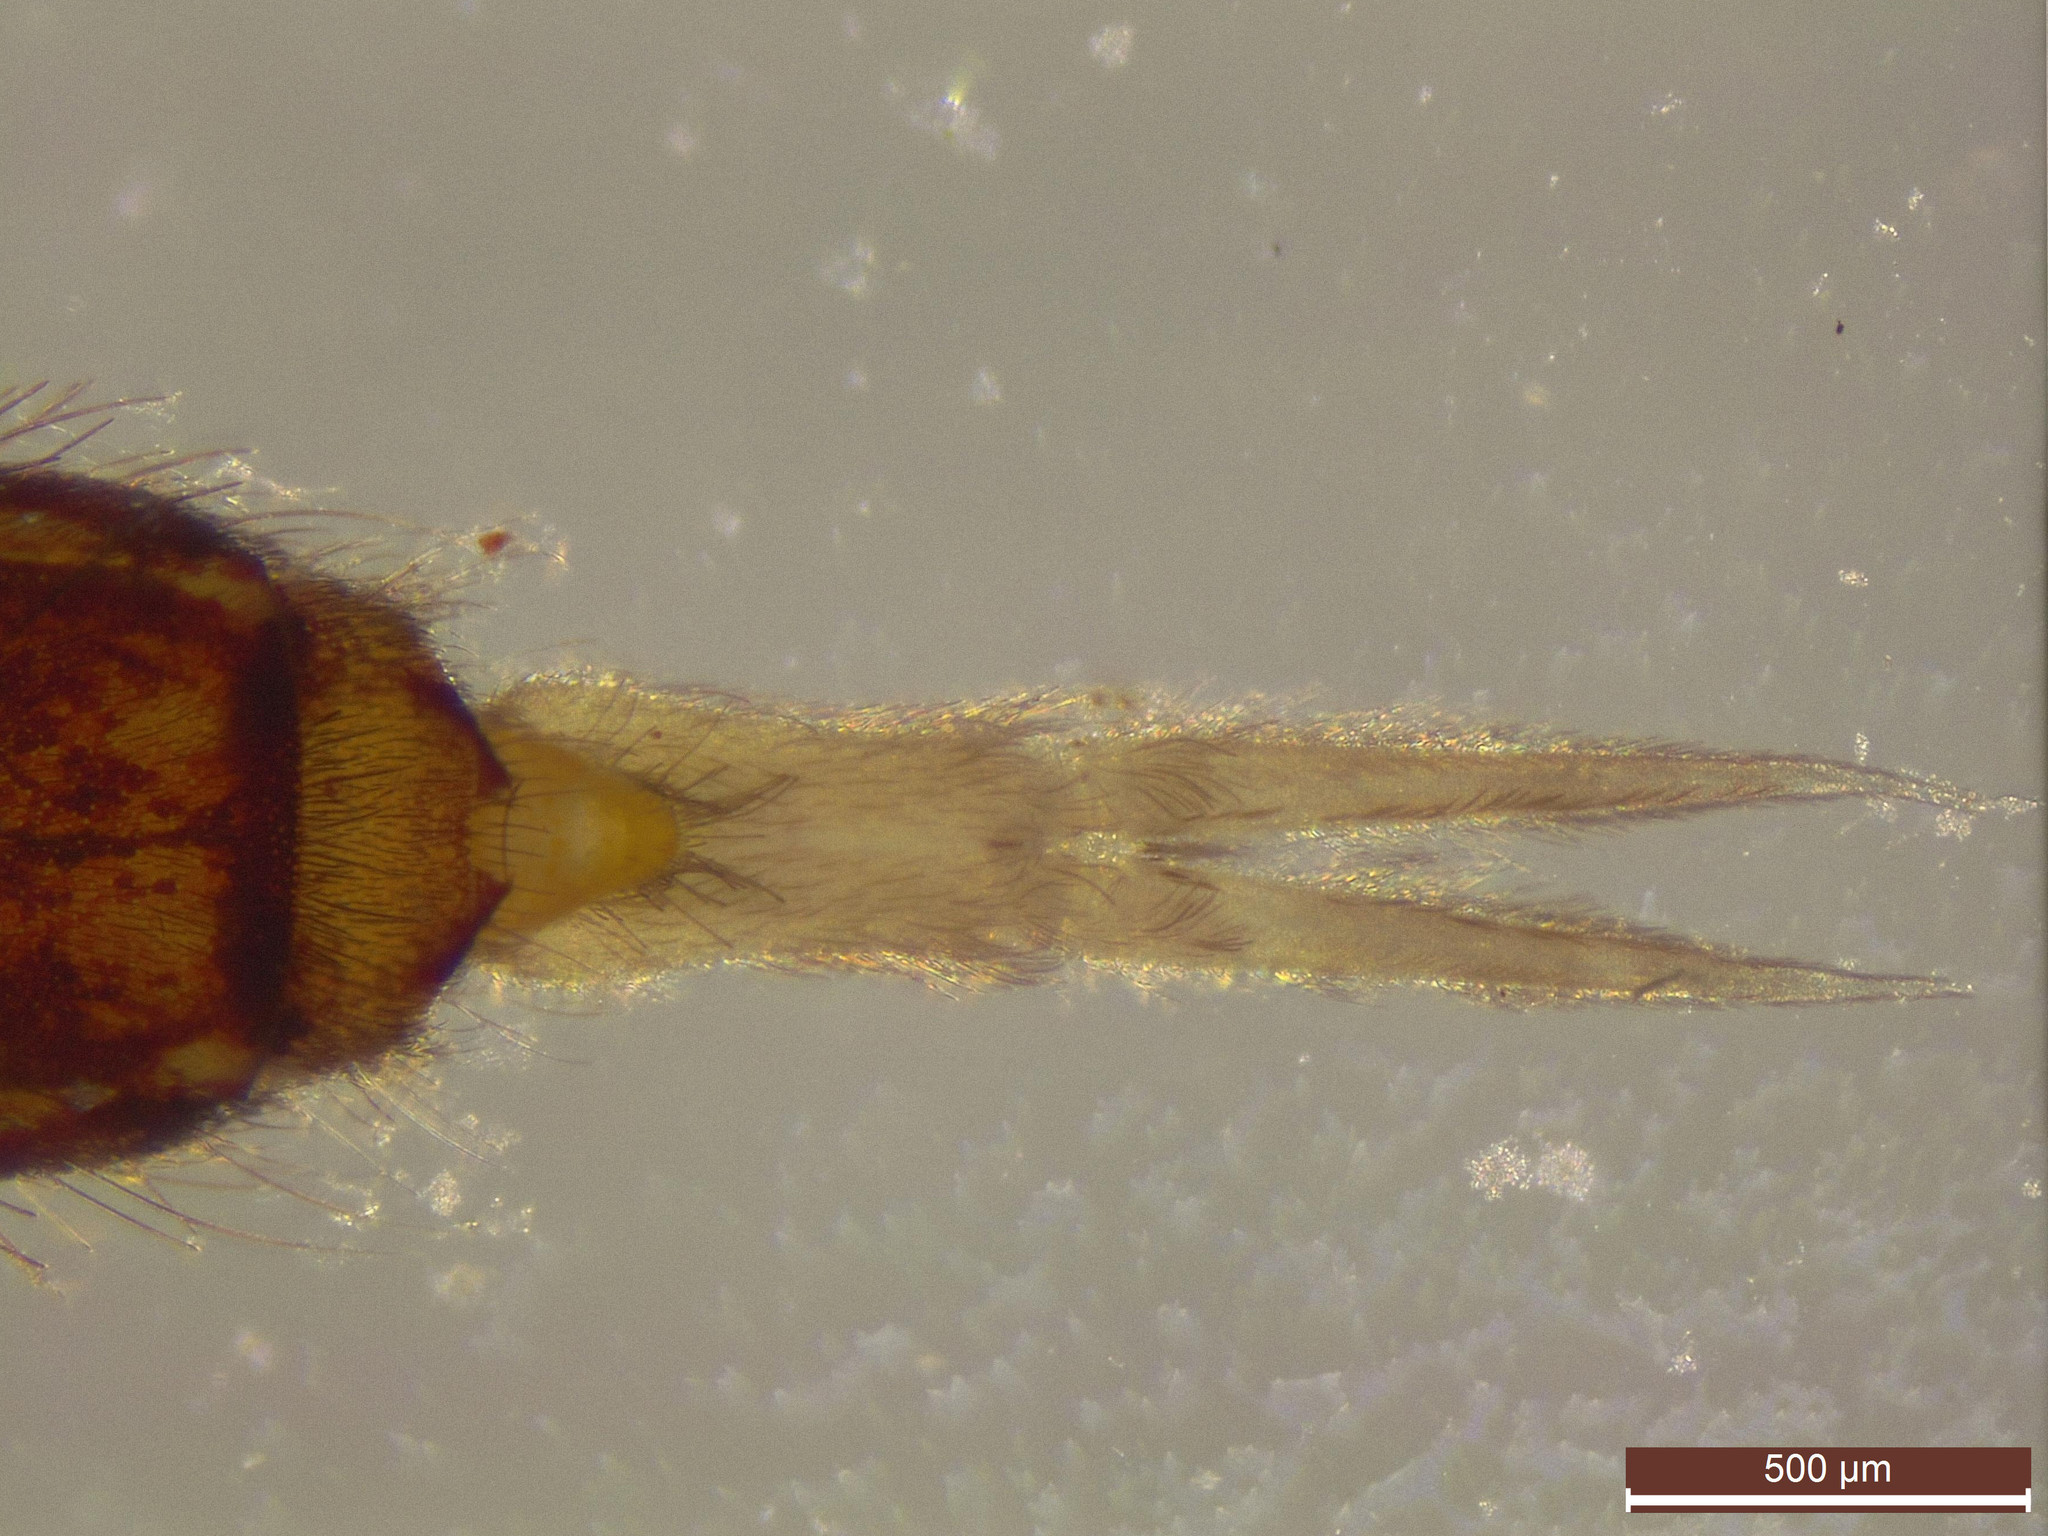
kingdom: Animalia
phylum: Arthropoda
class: Collembola
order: Entomobryomorpha
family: Orchesellidae
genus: Orchesella
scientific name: Orchesella cincta
